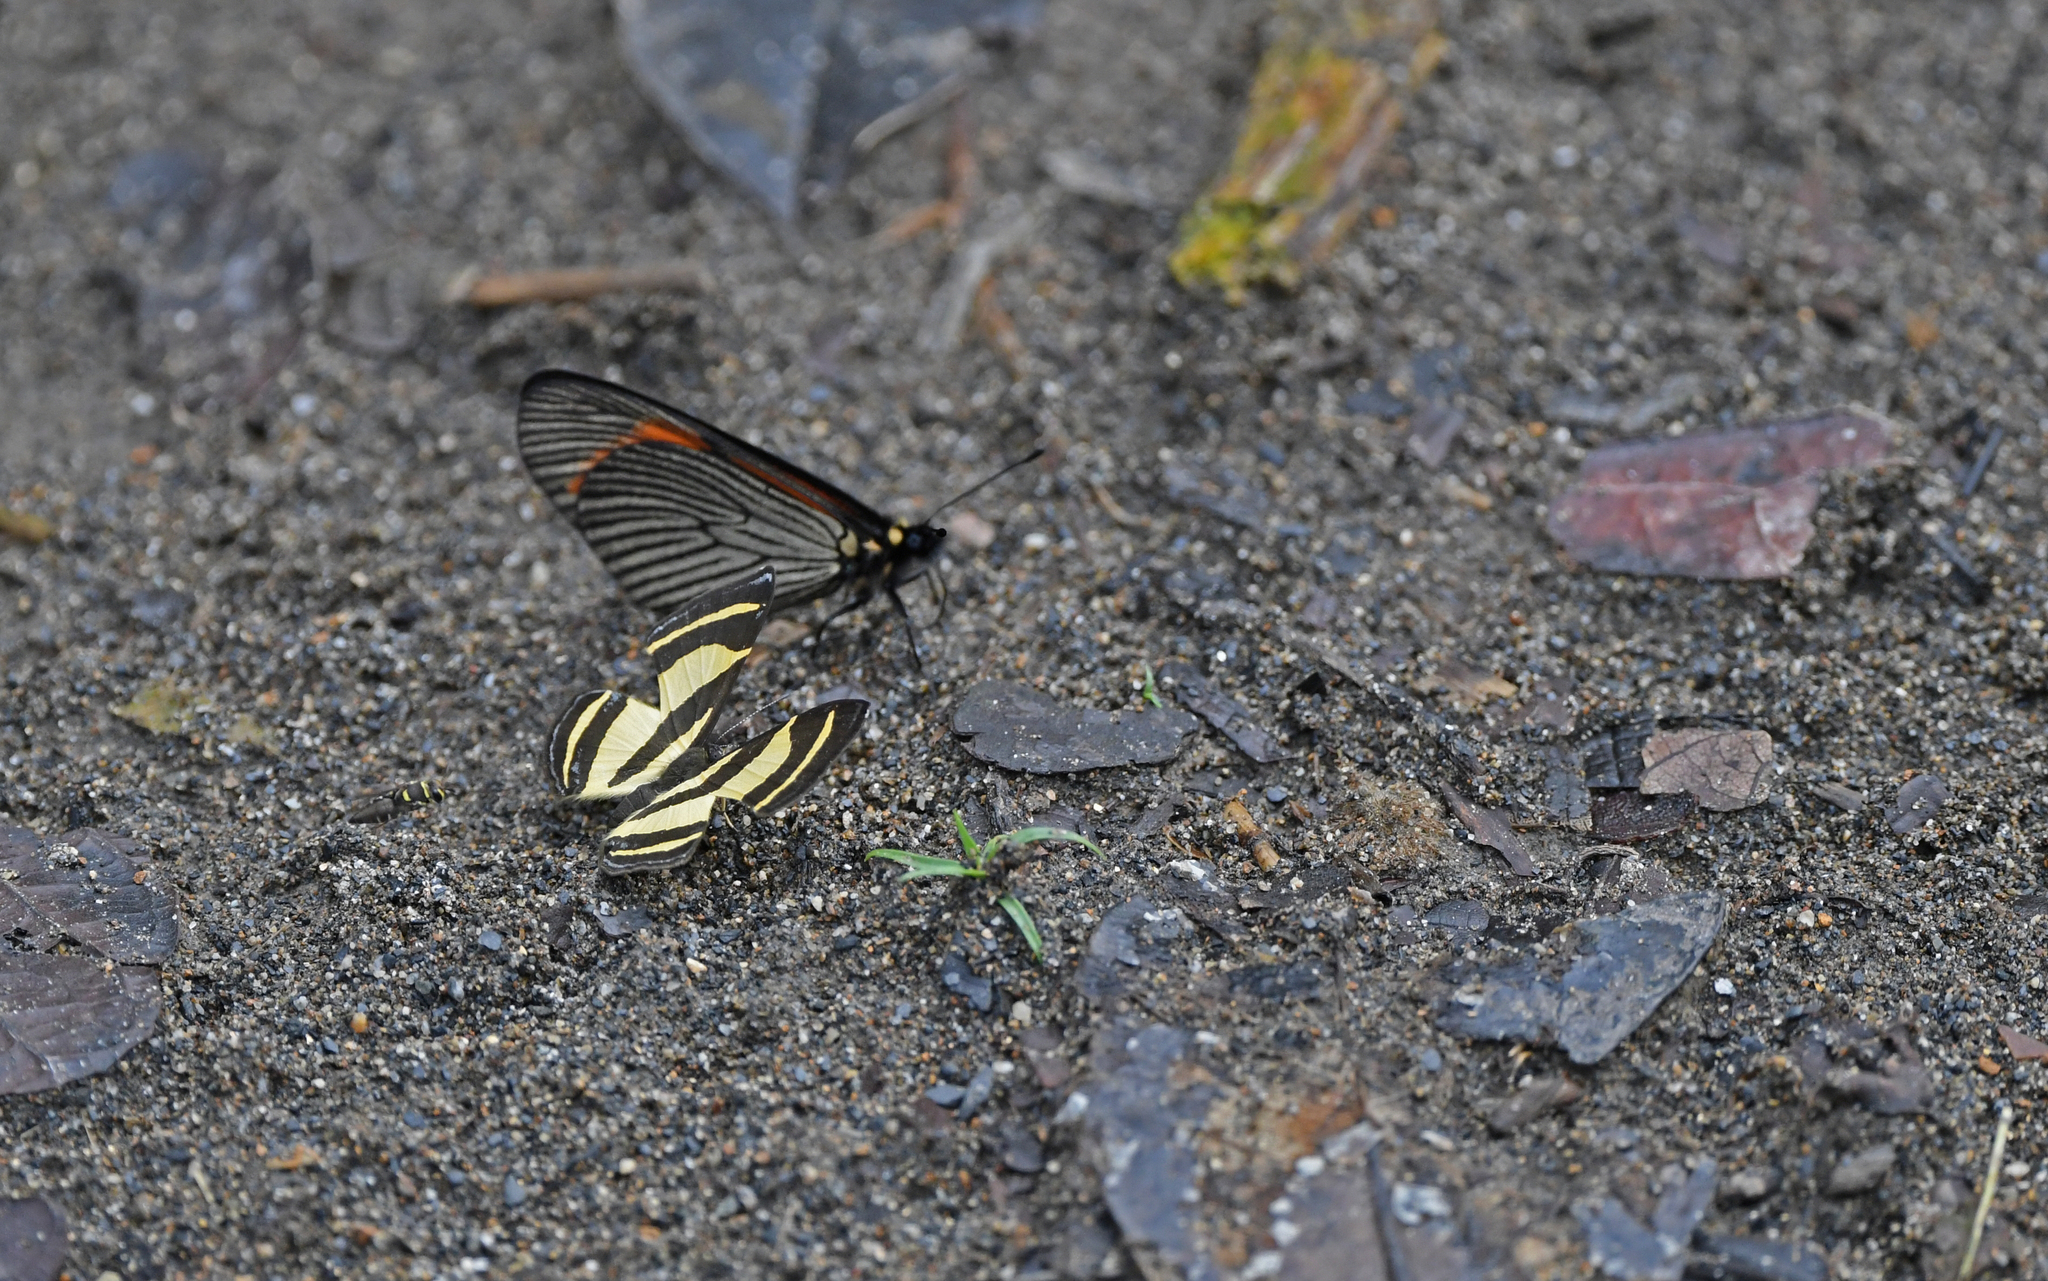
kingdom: Animalia
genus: Baeotis
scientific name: Baeotis
